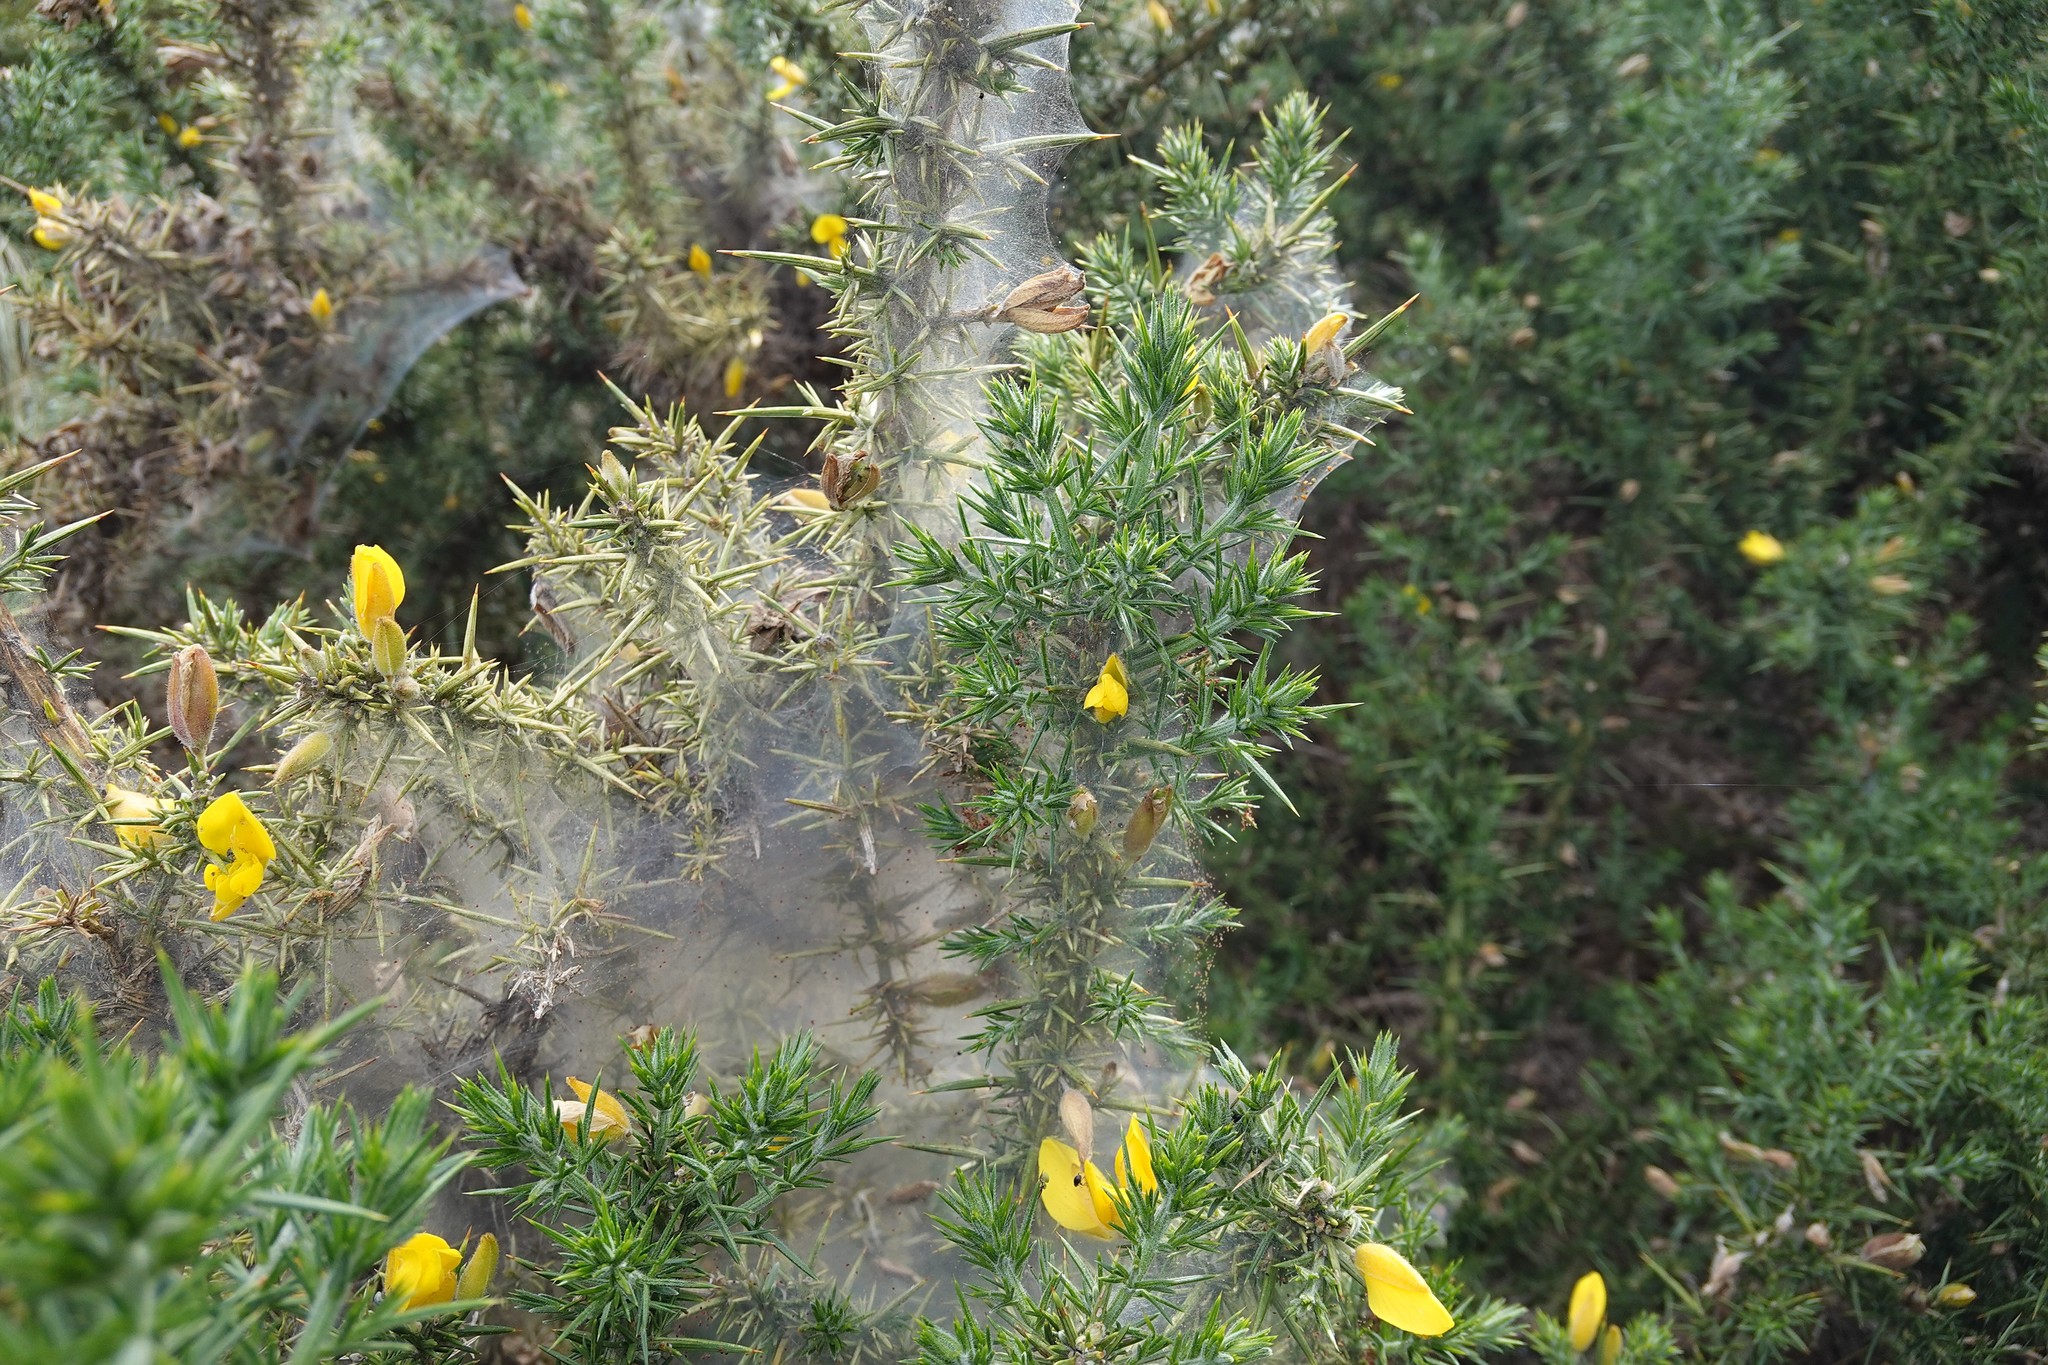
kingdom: Animalia
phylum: Arthropoda
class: Arachnida
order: Trombidiformes
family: Tetranychidae
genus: Tetranychus
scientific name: Tetranychus lintearius
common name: Gorse spider mite
